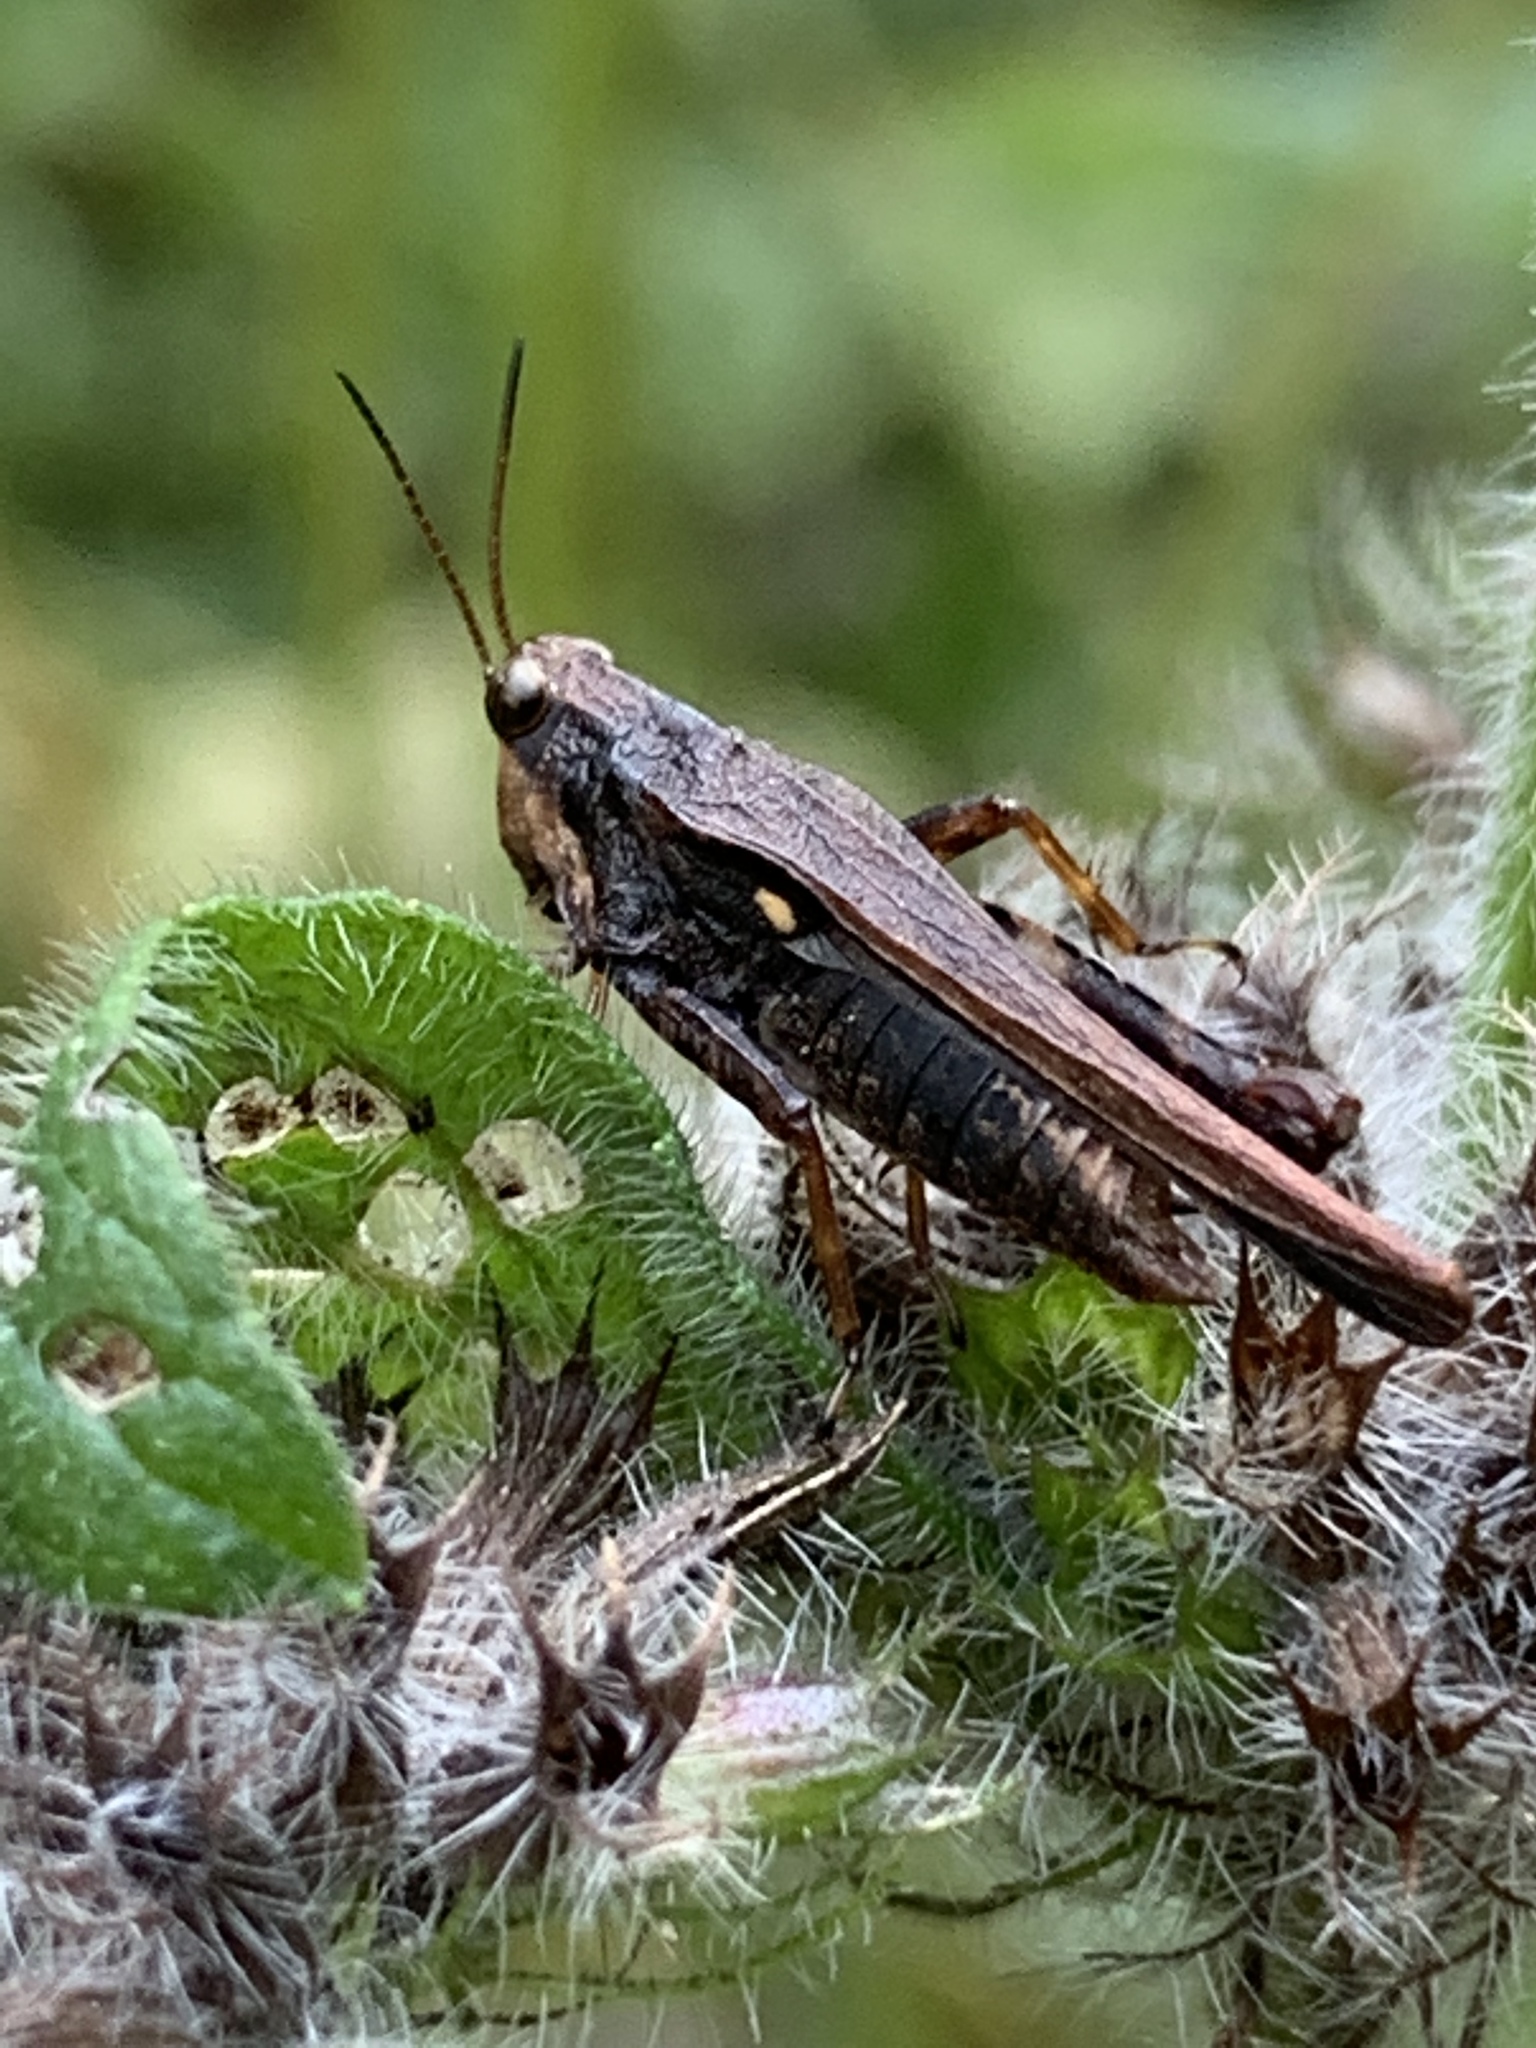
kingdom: Animalia
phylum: Arthropoda
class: Insecta
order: Orthoptera
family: Tetrigidae
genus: Tettigidea
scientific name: Tettigidea laterale
